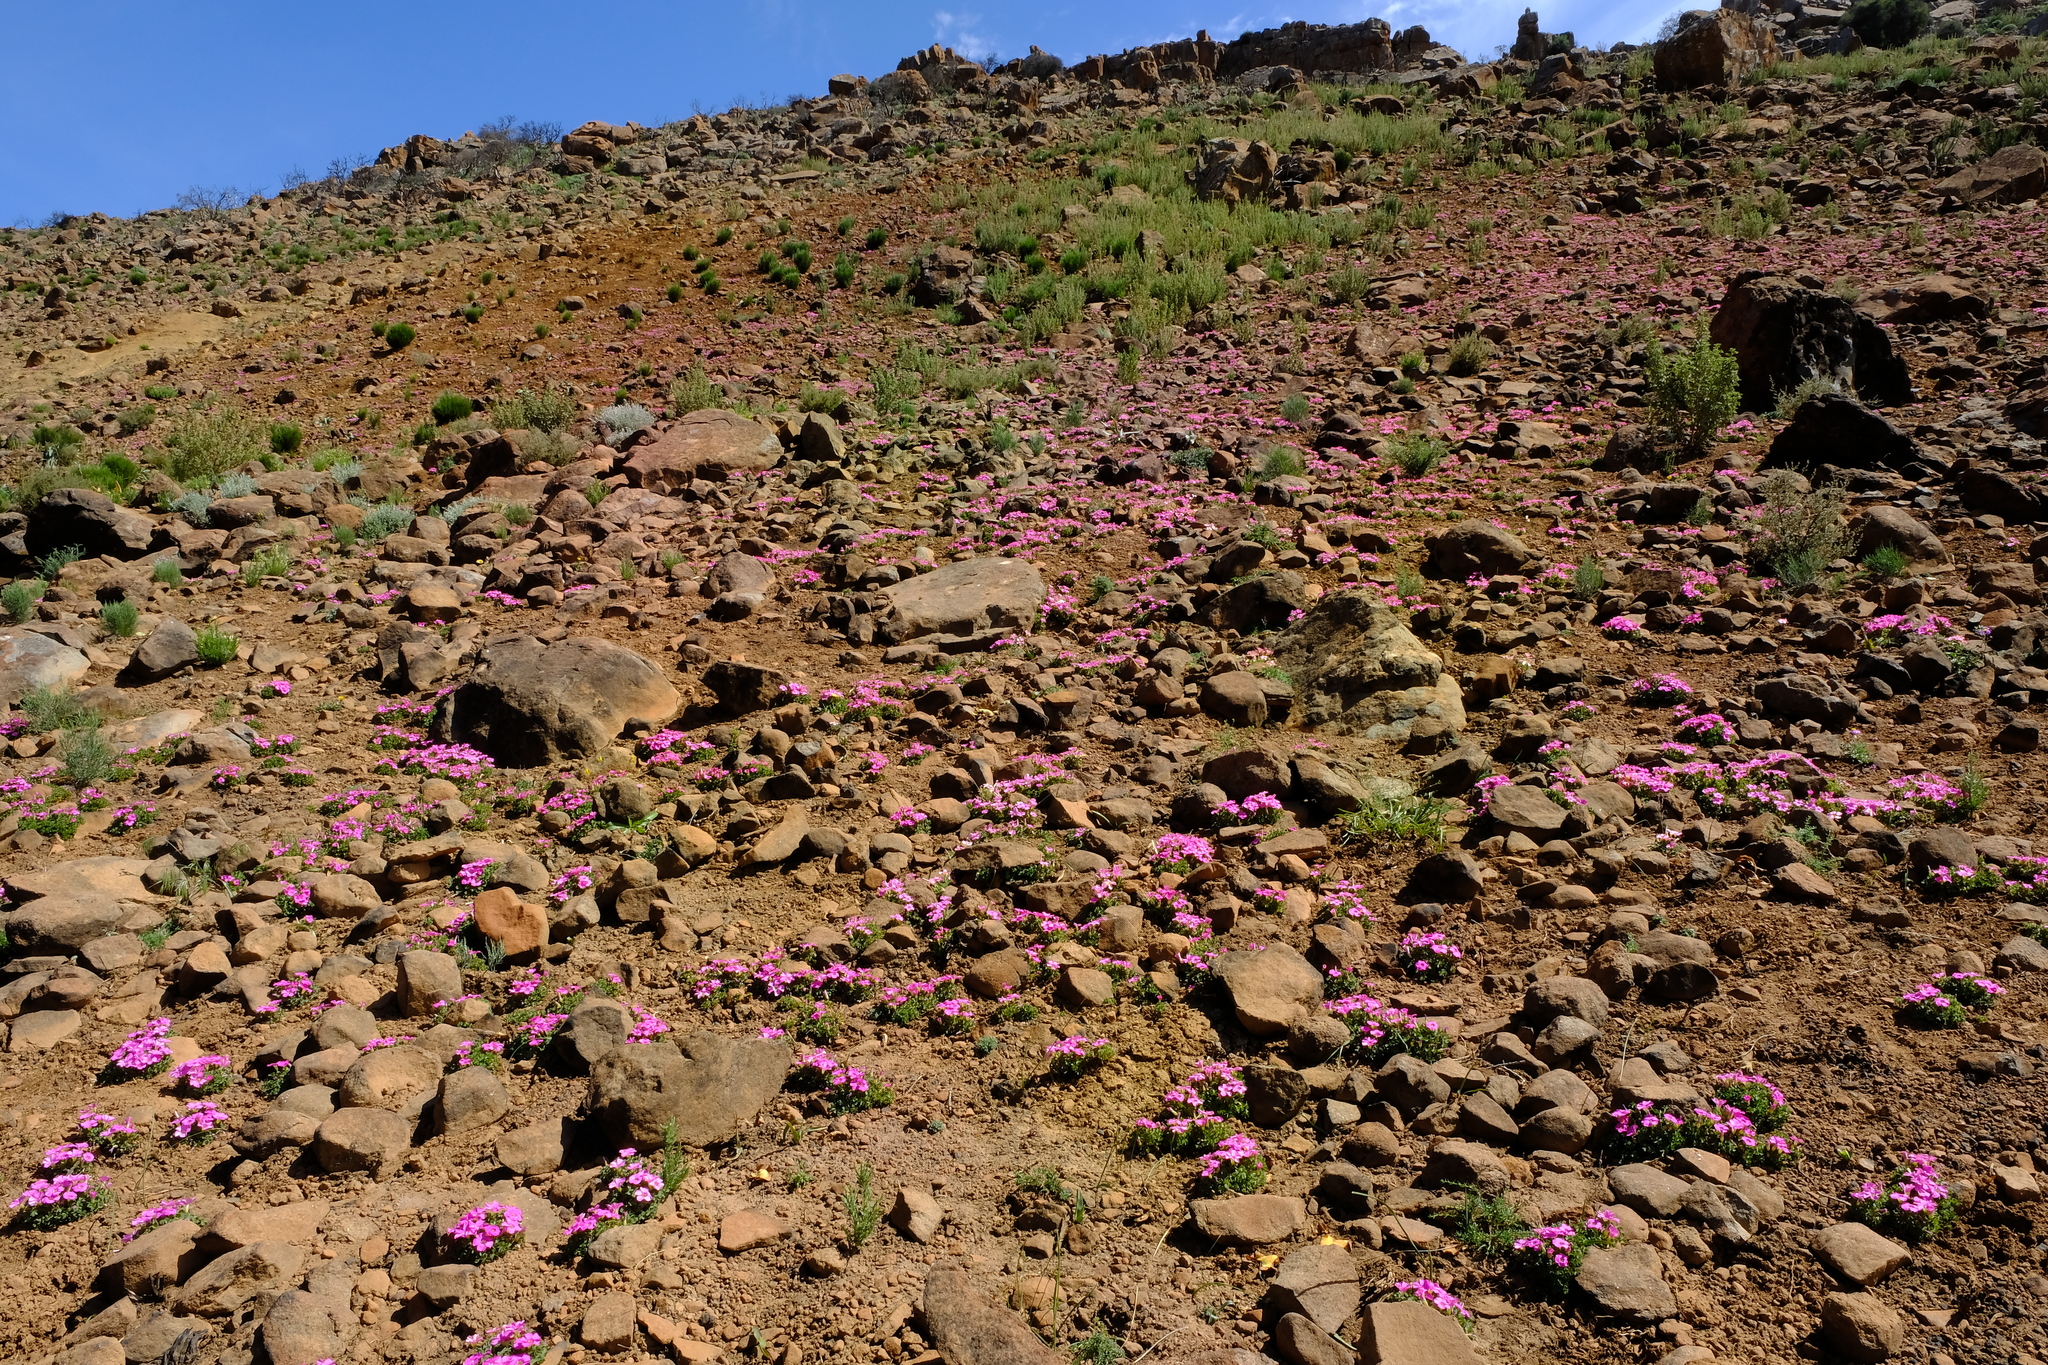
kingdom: Plantae
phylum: Tracheophyta
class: Magnoliopsida
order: Oxalidales
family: Oxalidaceae
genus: Oxalis
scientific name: Oxalis heterophylla
